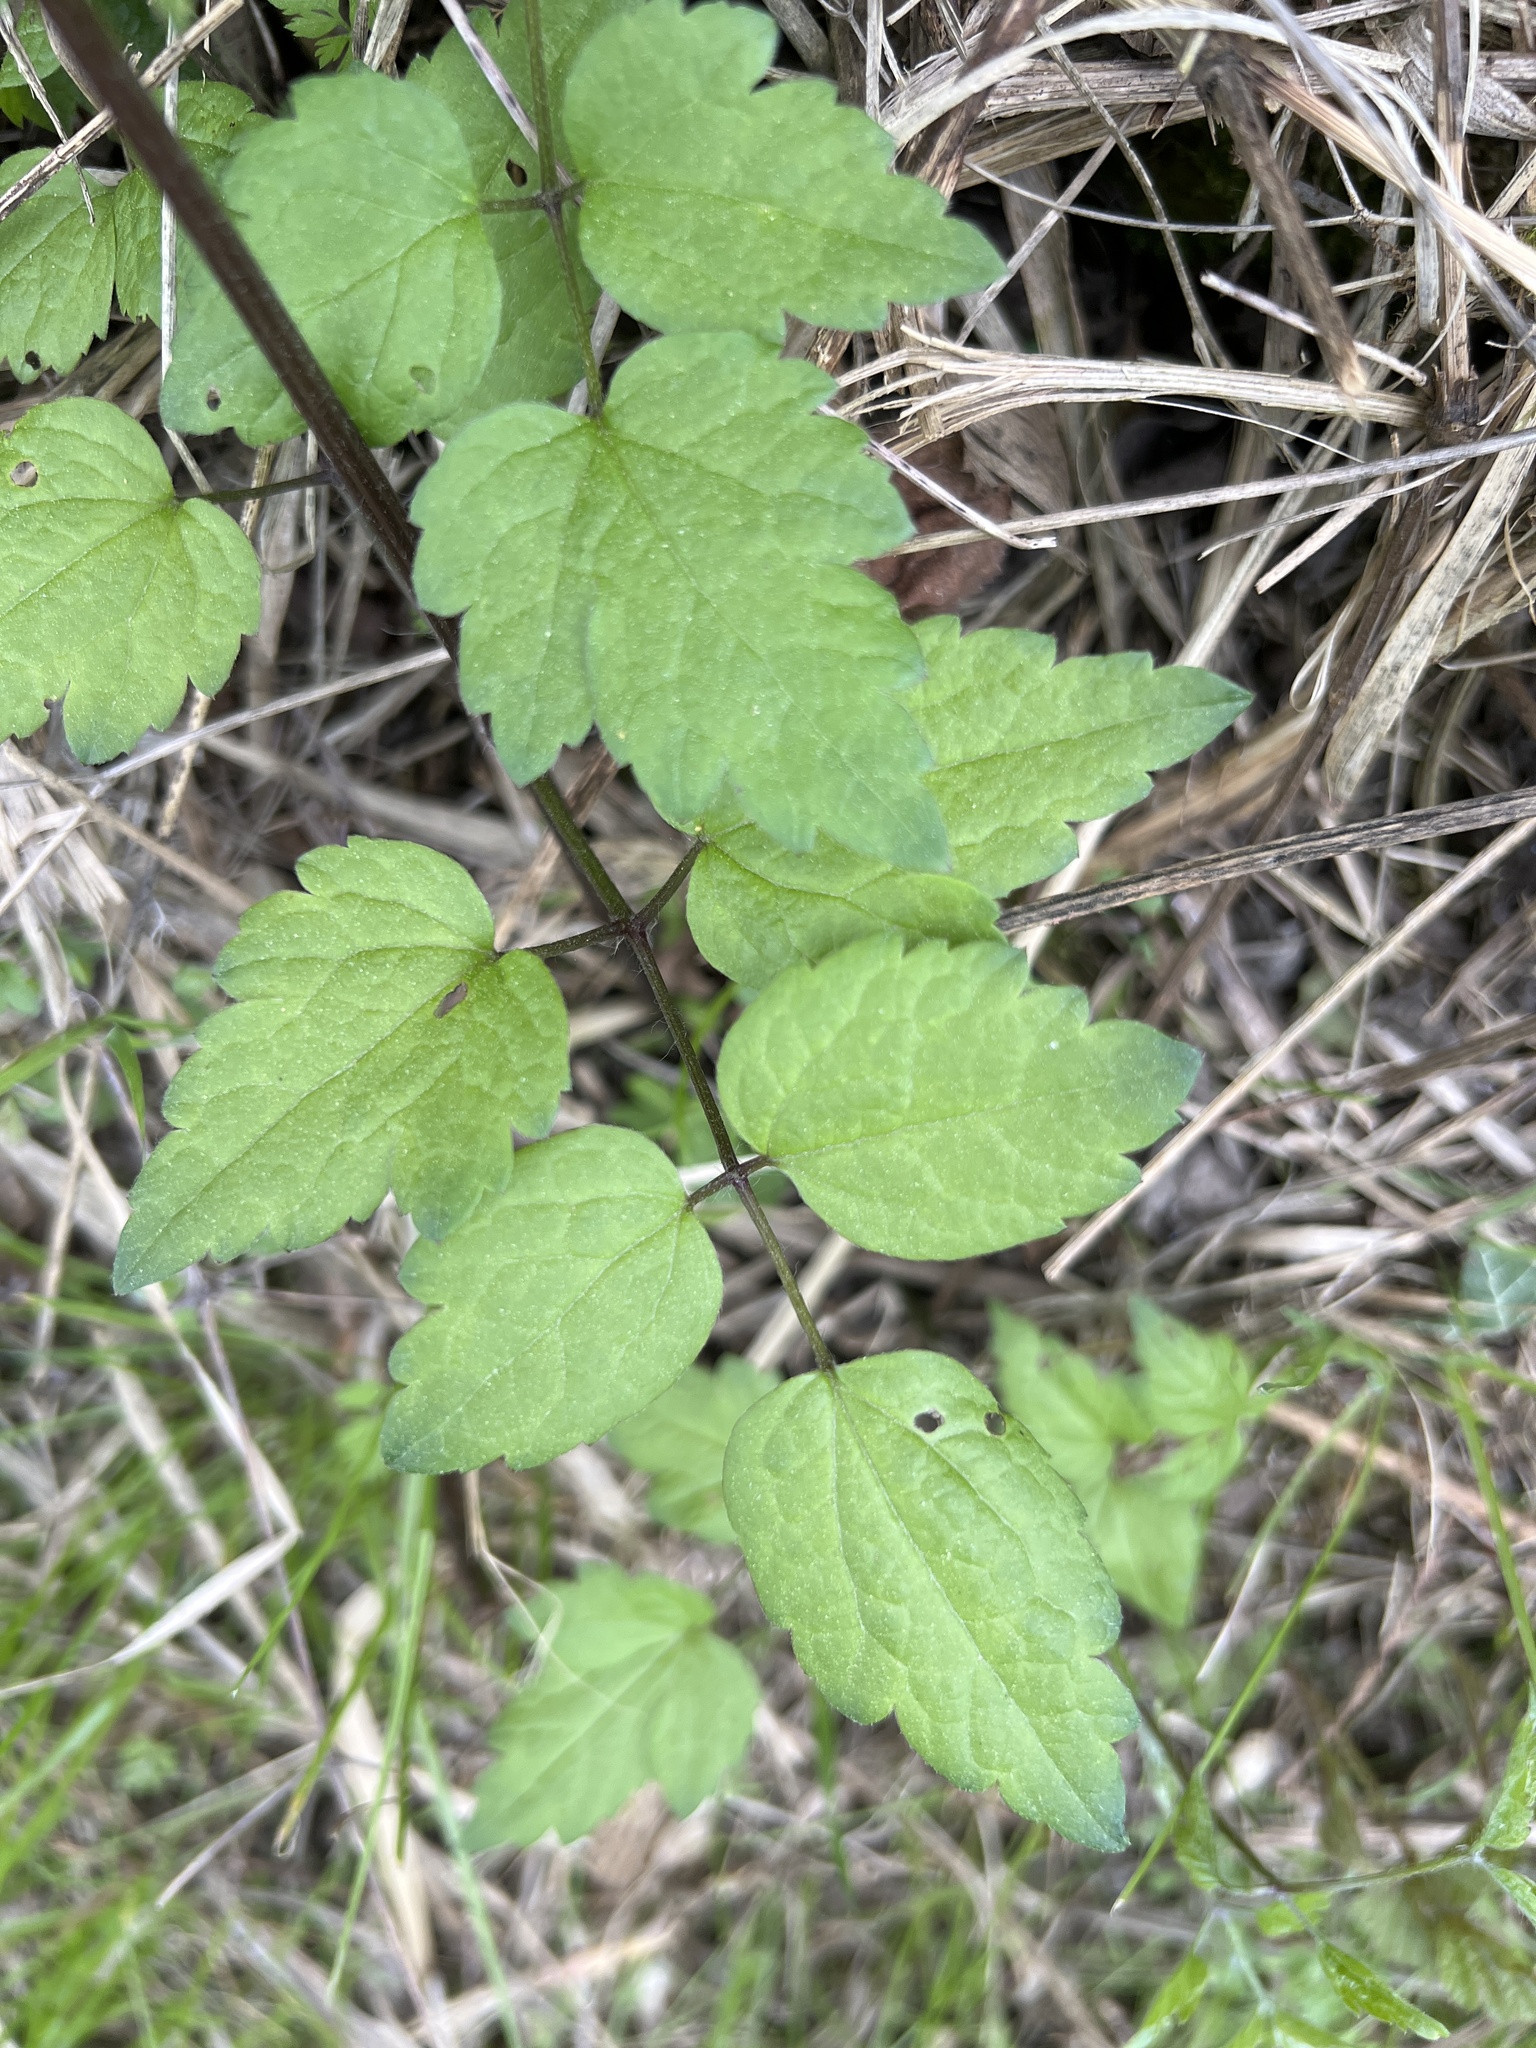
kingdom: Plantae
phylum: Tracheophyta
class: Magnoliopsida
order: Ranunculales
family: Ranunculaceae
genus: Clematis
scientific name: Clematis vitalba
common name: Evergreen clematis
